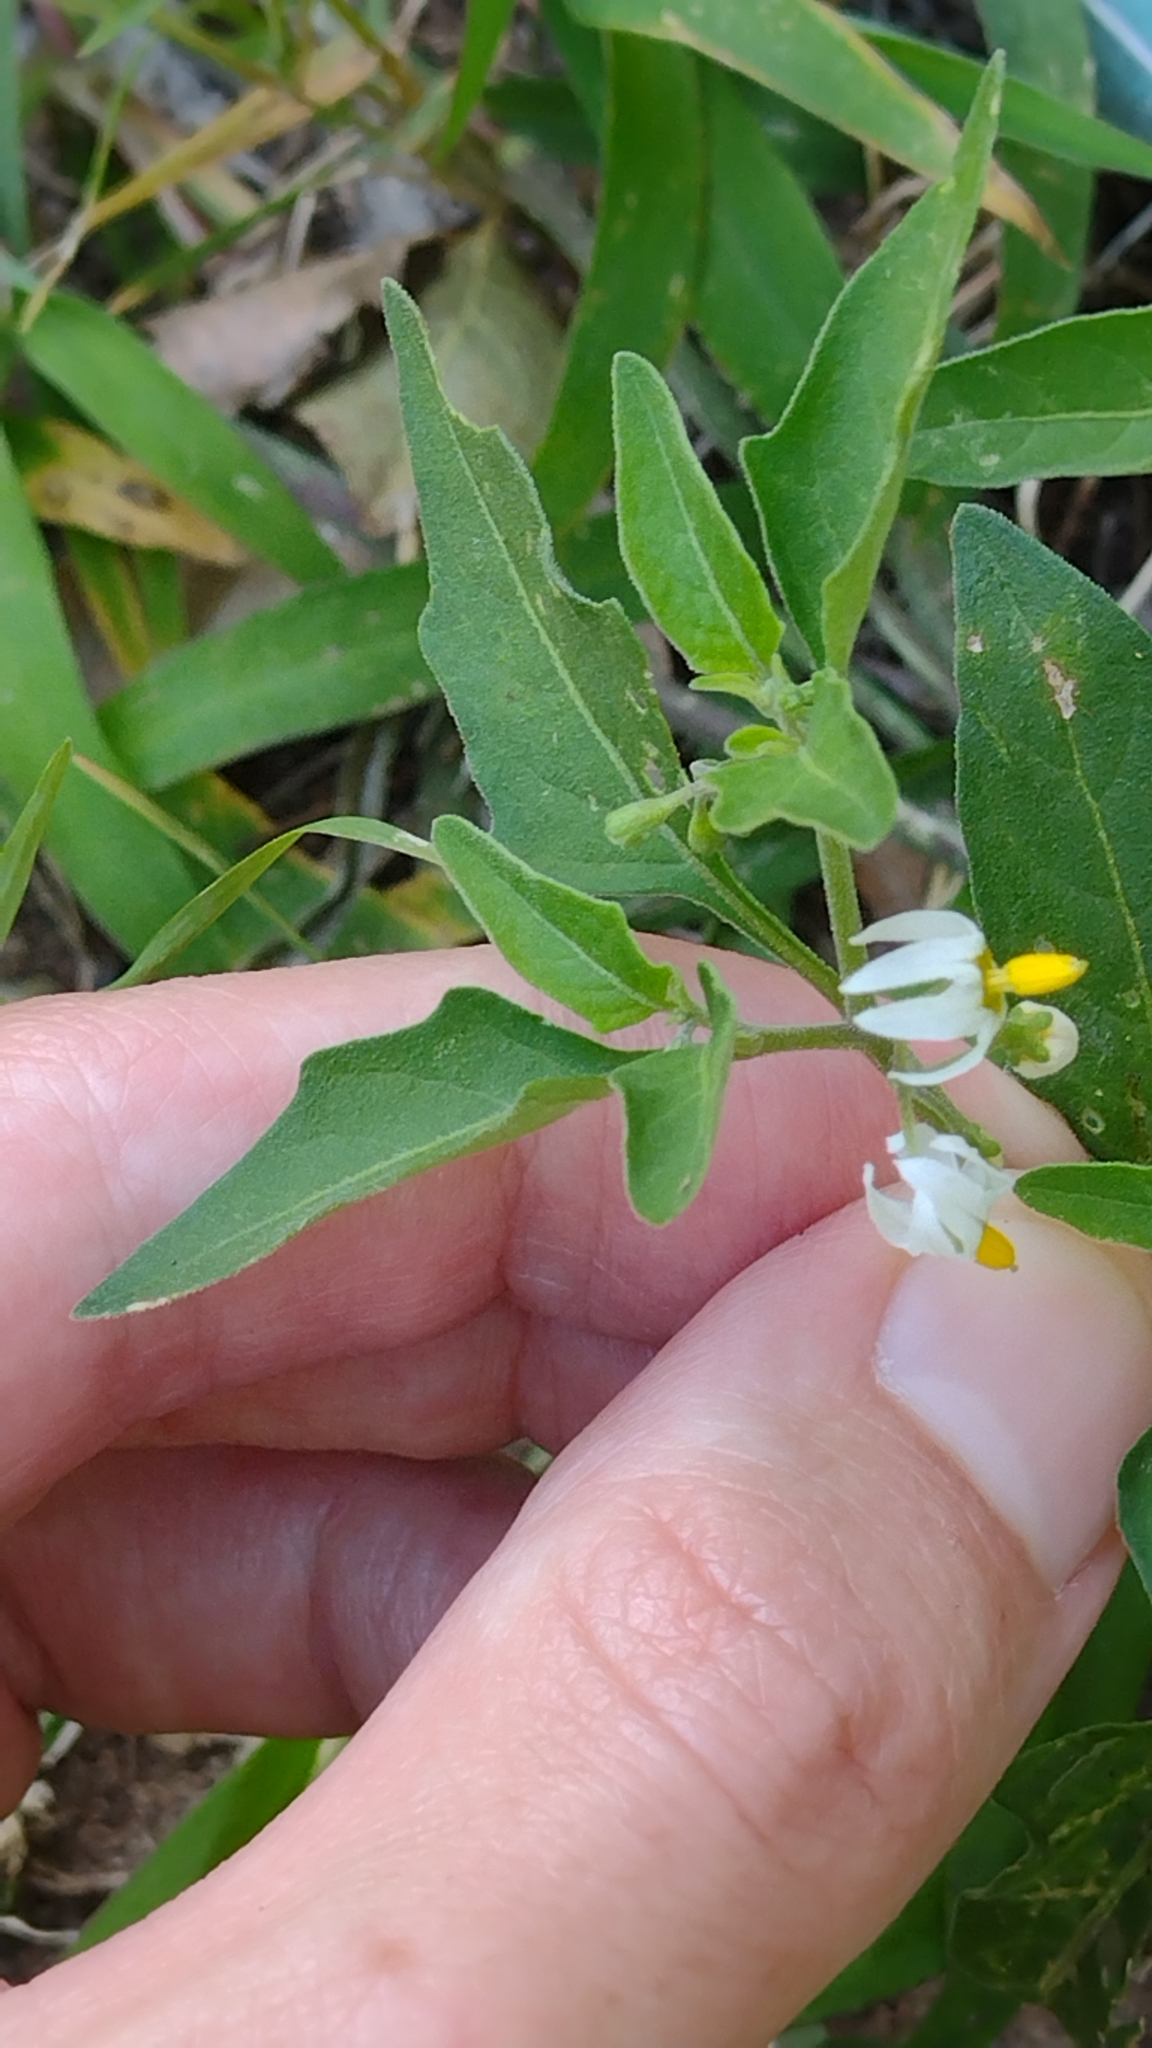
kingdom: Plantae
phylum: Tracheophyta
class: Magnoliopsida
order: Solanales
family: Solanaceae
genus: Solanum
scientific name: Solanum pygmaeum
